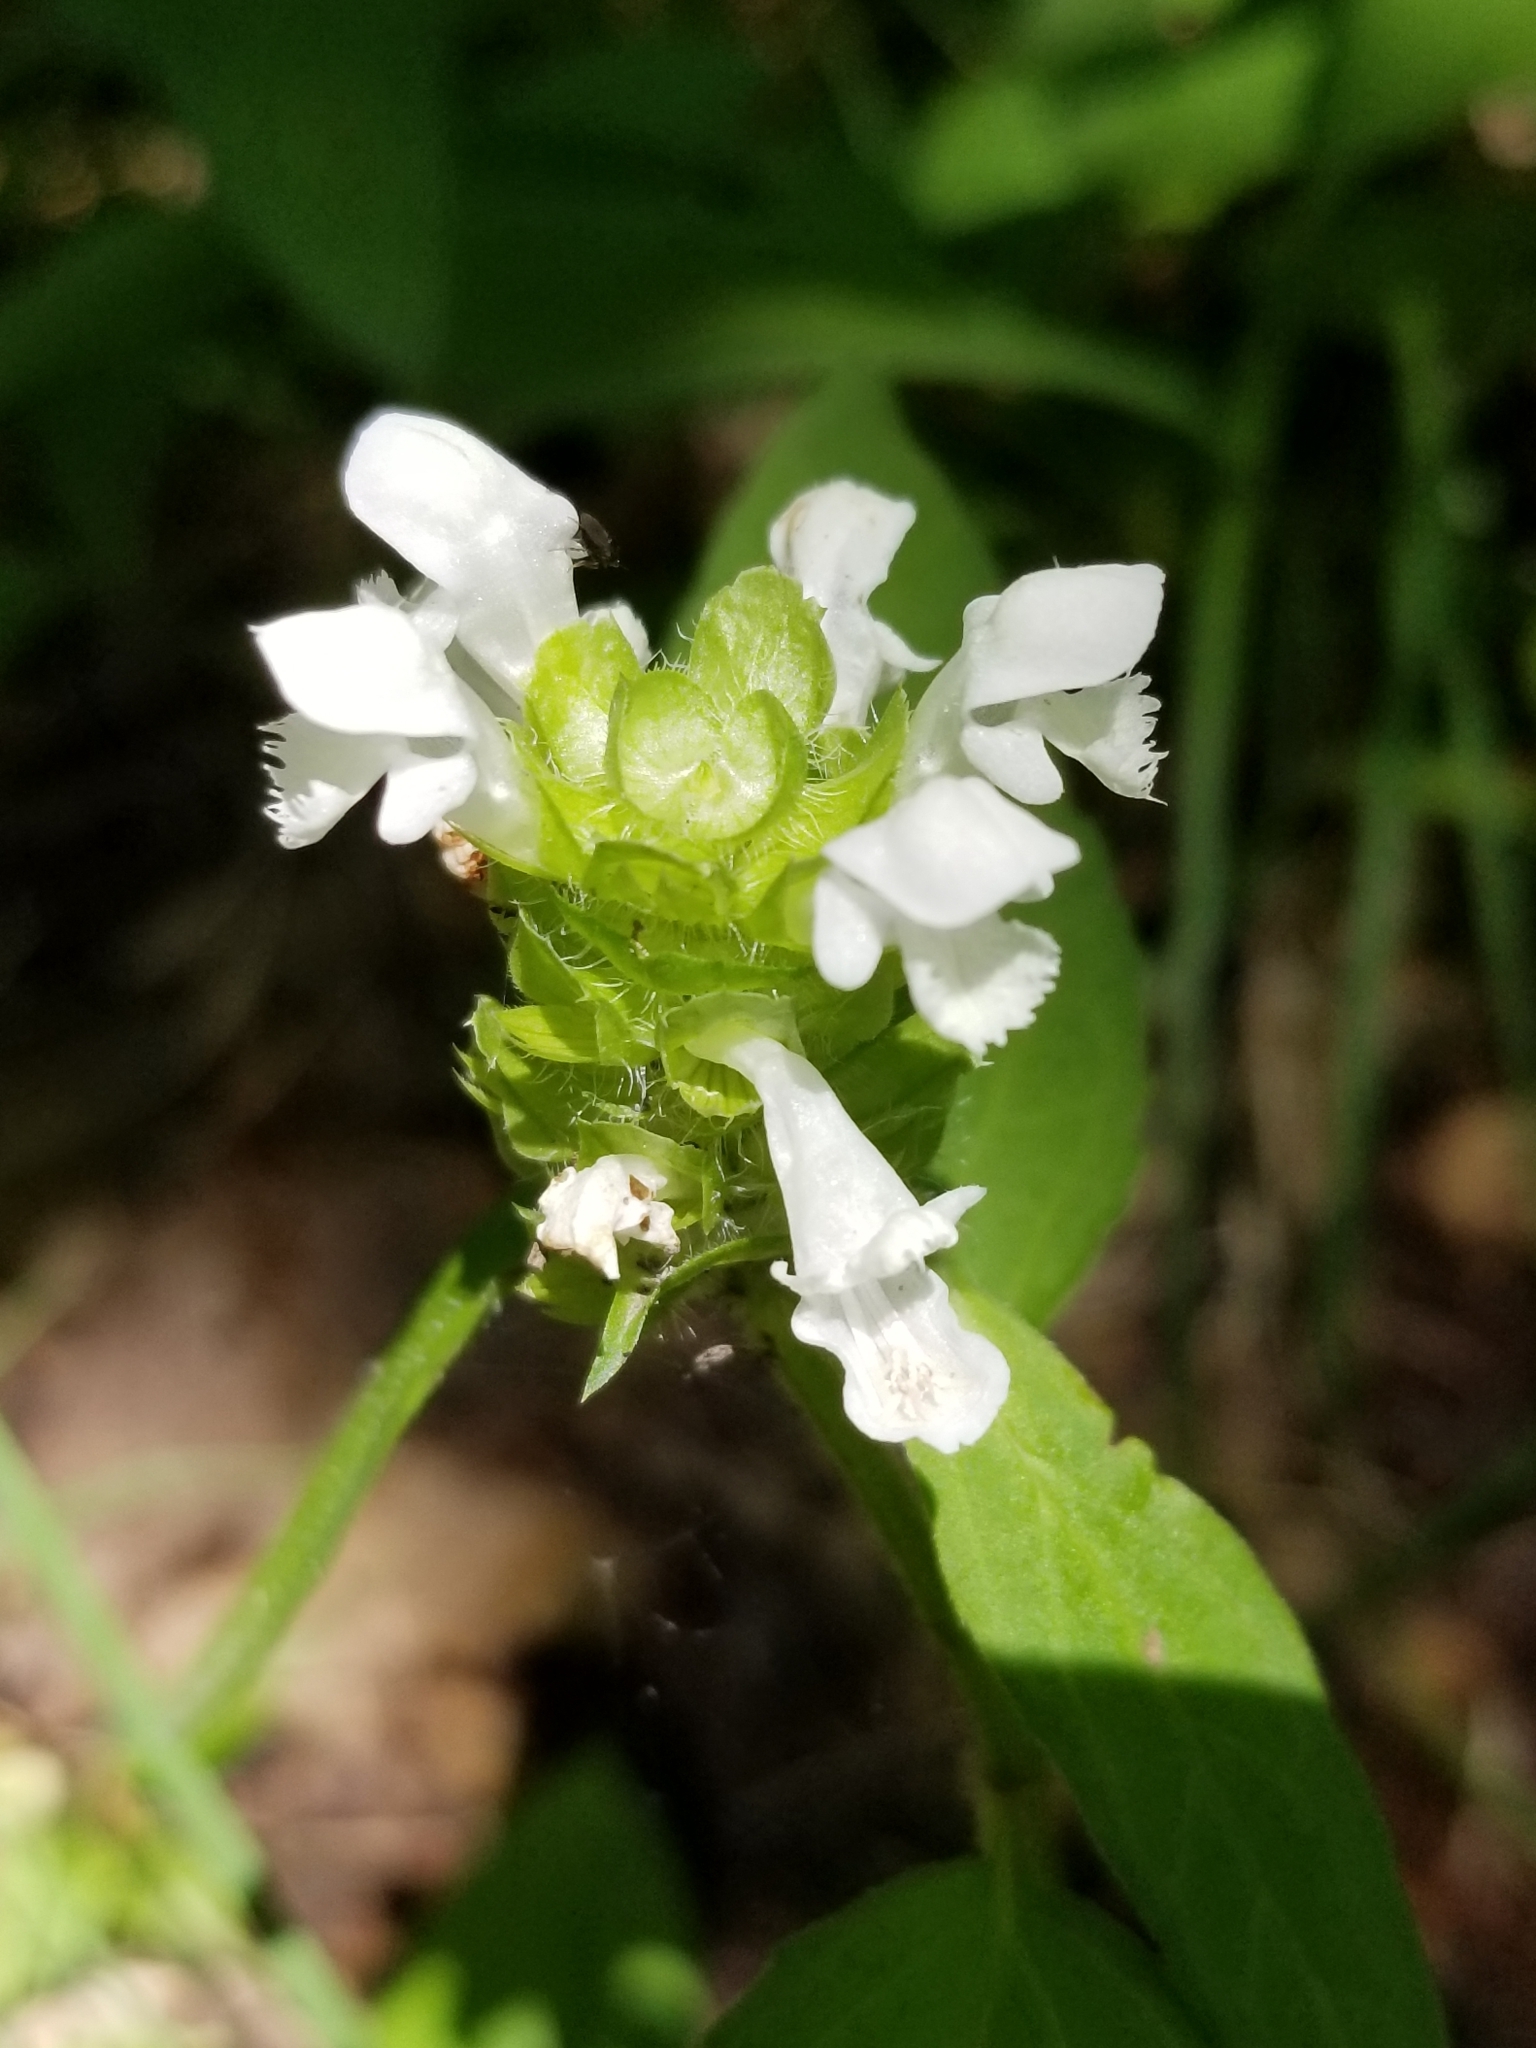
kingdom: Plantae
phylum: Tracheophyta
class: Magnoliopsida
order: Lamiales
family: Lamiaceae
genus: Prunella
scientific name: Prunella vulgaris
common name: Heal-all
